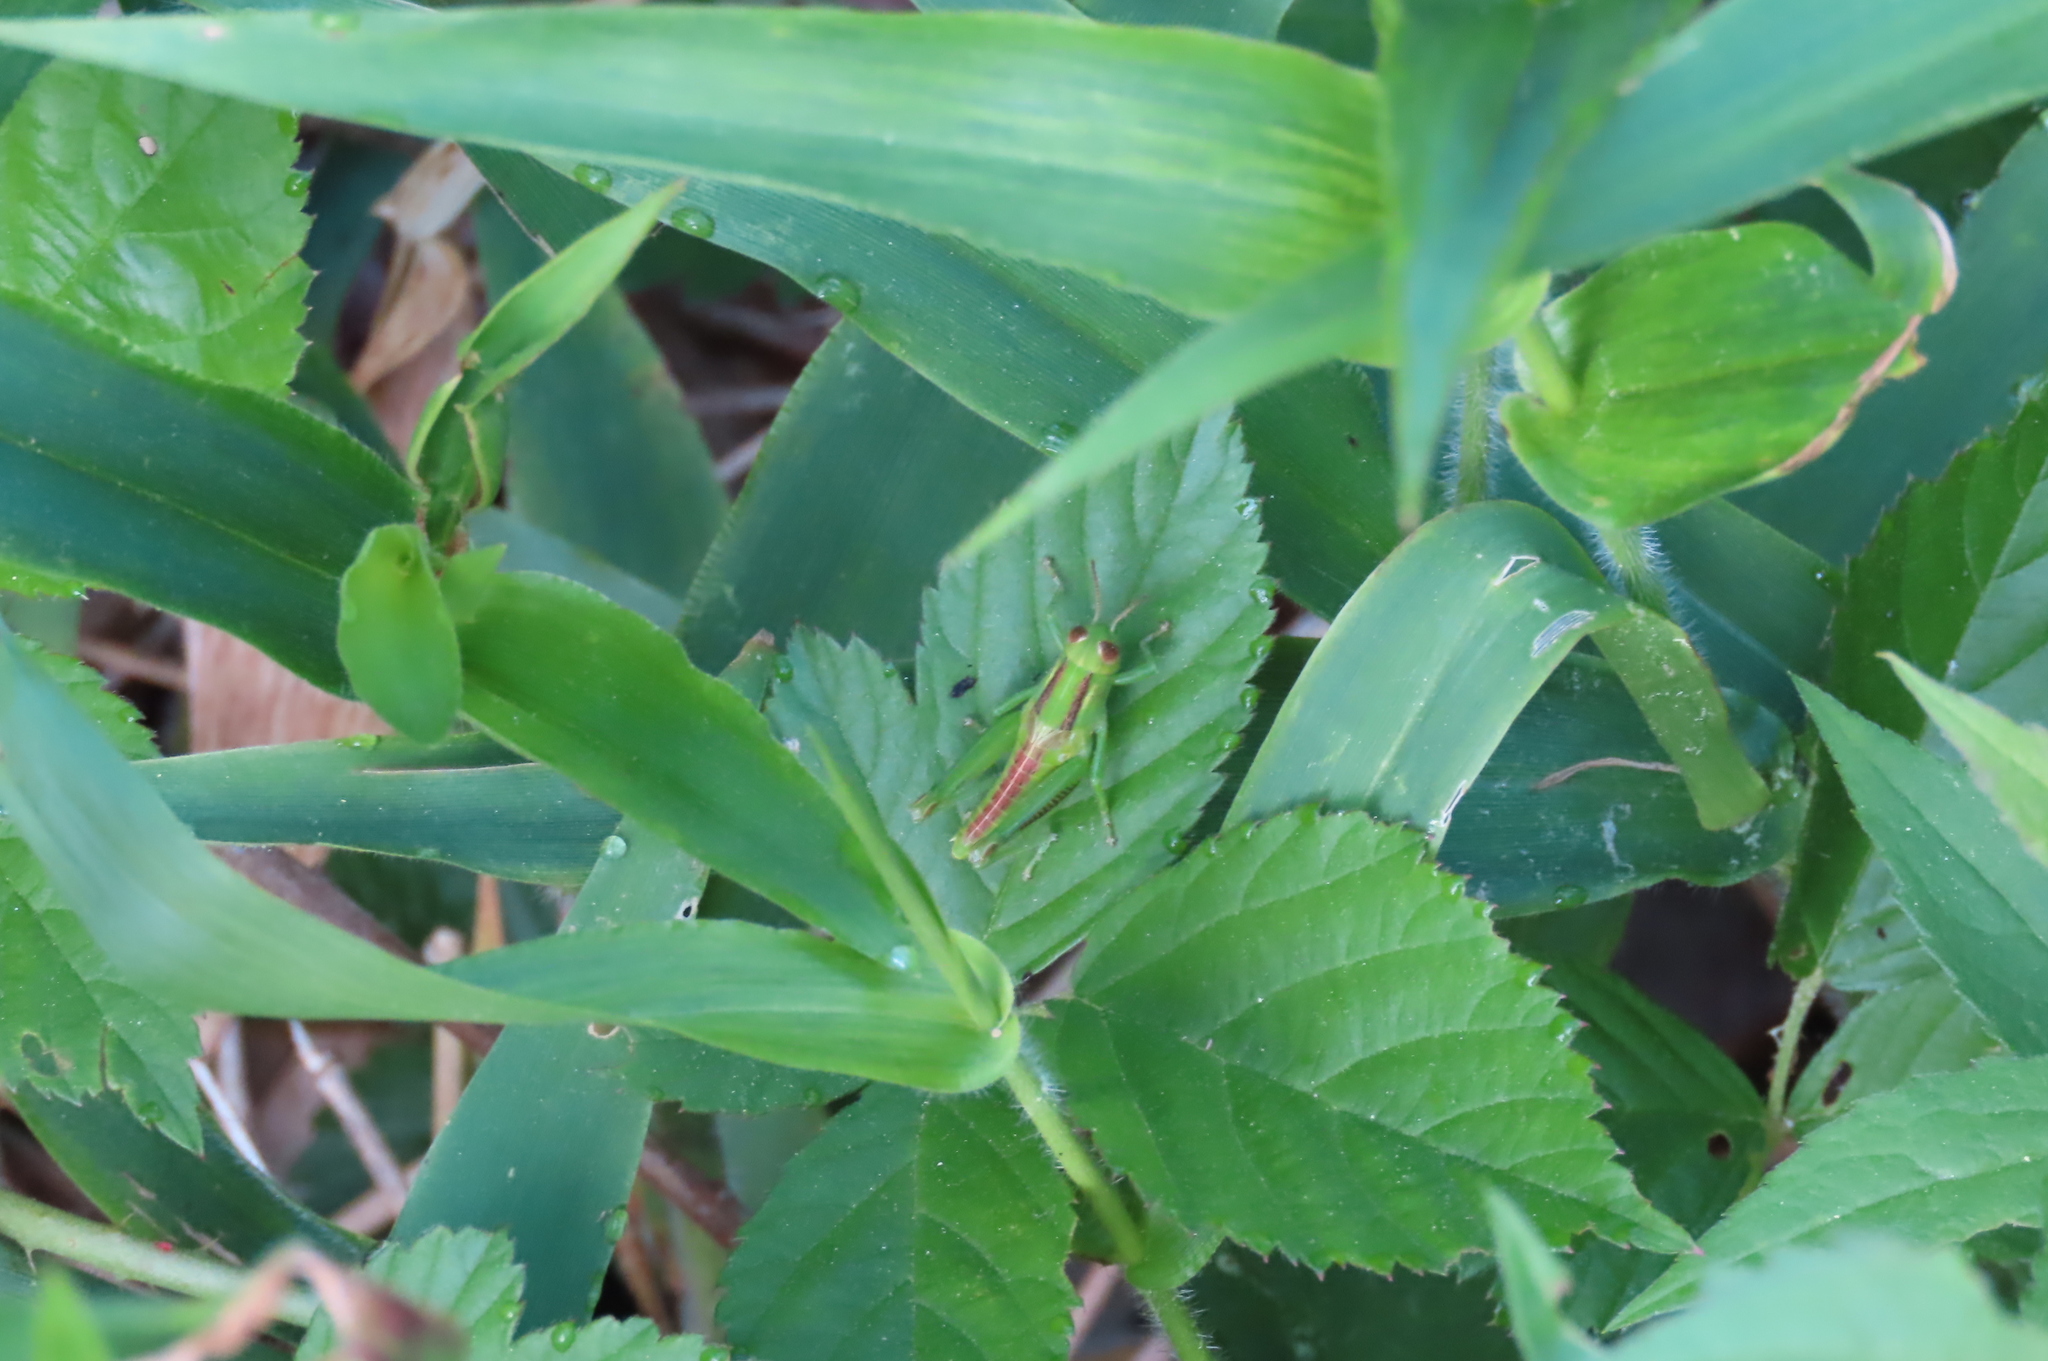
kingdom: Animalia
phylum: Arthropoda
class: Insecta
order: Orthoptera
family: Acrididae
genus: Melanoplus
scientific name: Melanoplus bivittatus
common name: Two-striped grasshopper
